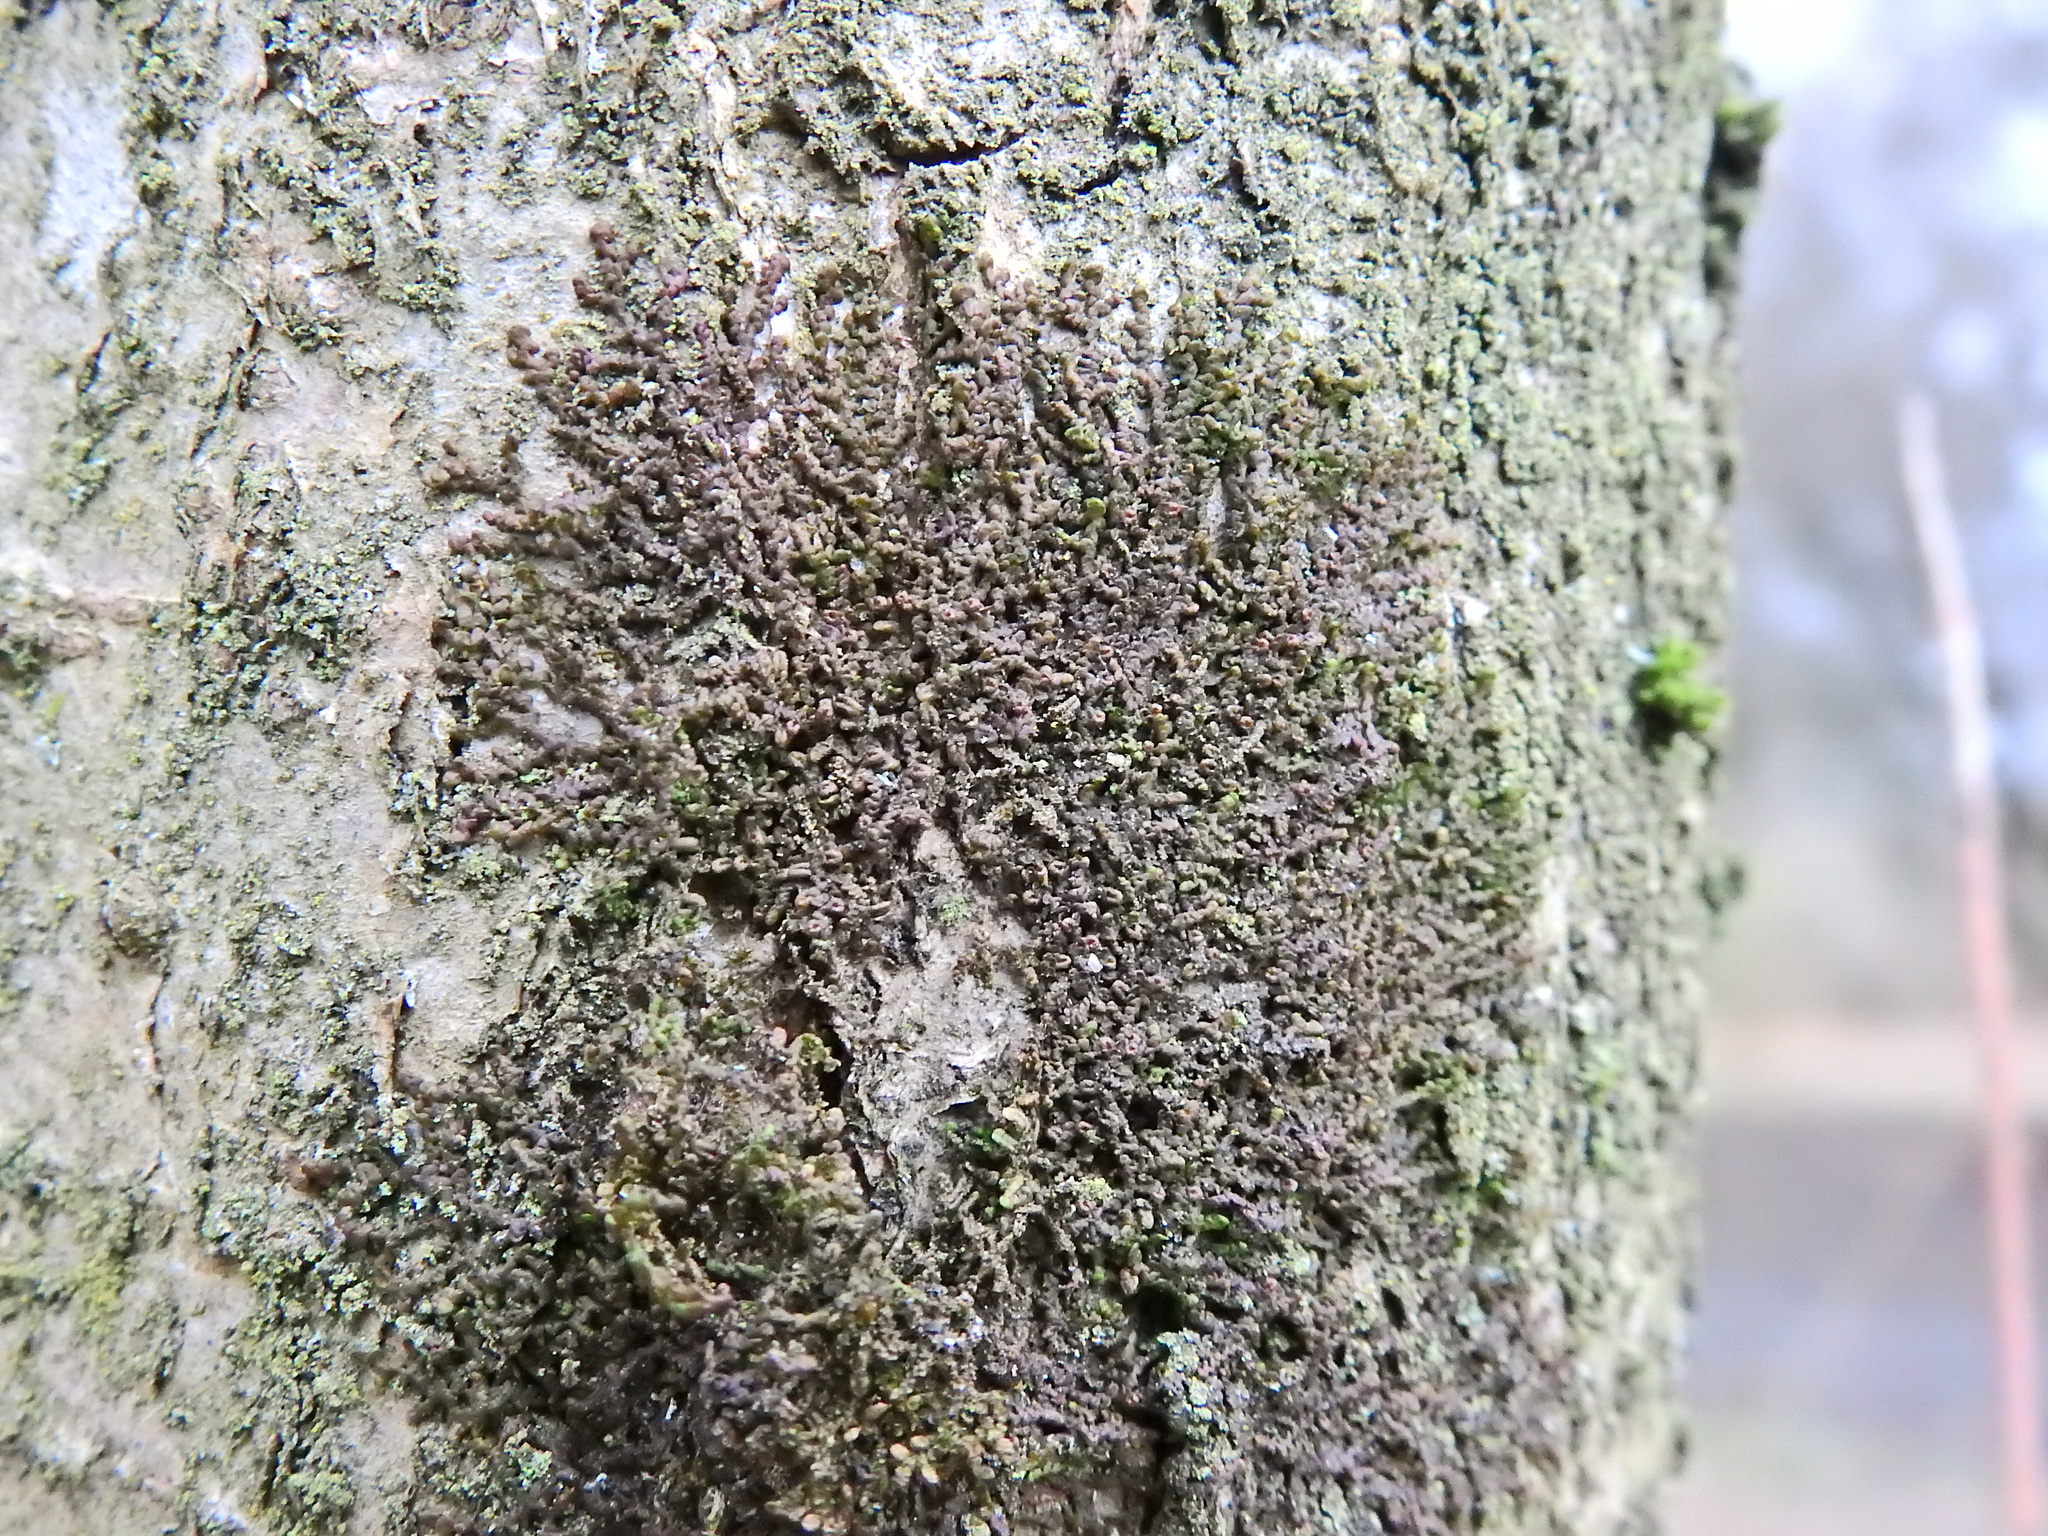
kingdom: Plantae
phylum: Marchantiophyta
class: Jungermanniopsida
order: Porellales
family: Frullaniaceae
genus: Frullania
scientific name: Frullania dilatata
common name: Dilated scalewort
